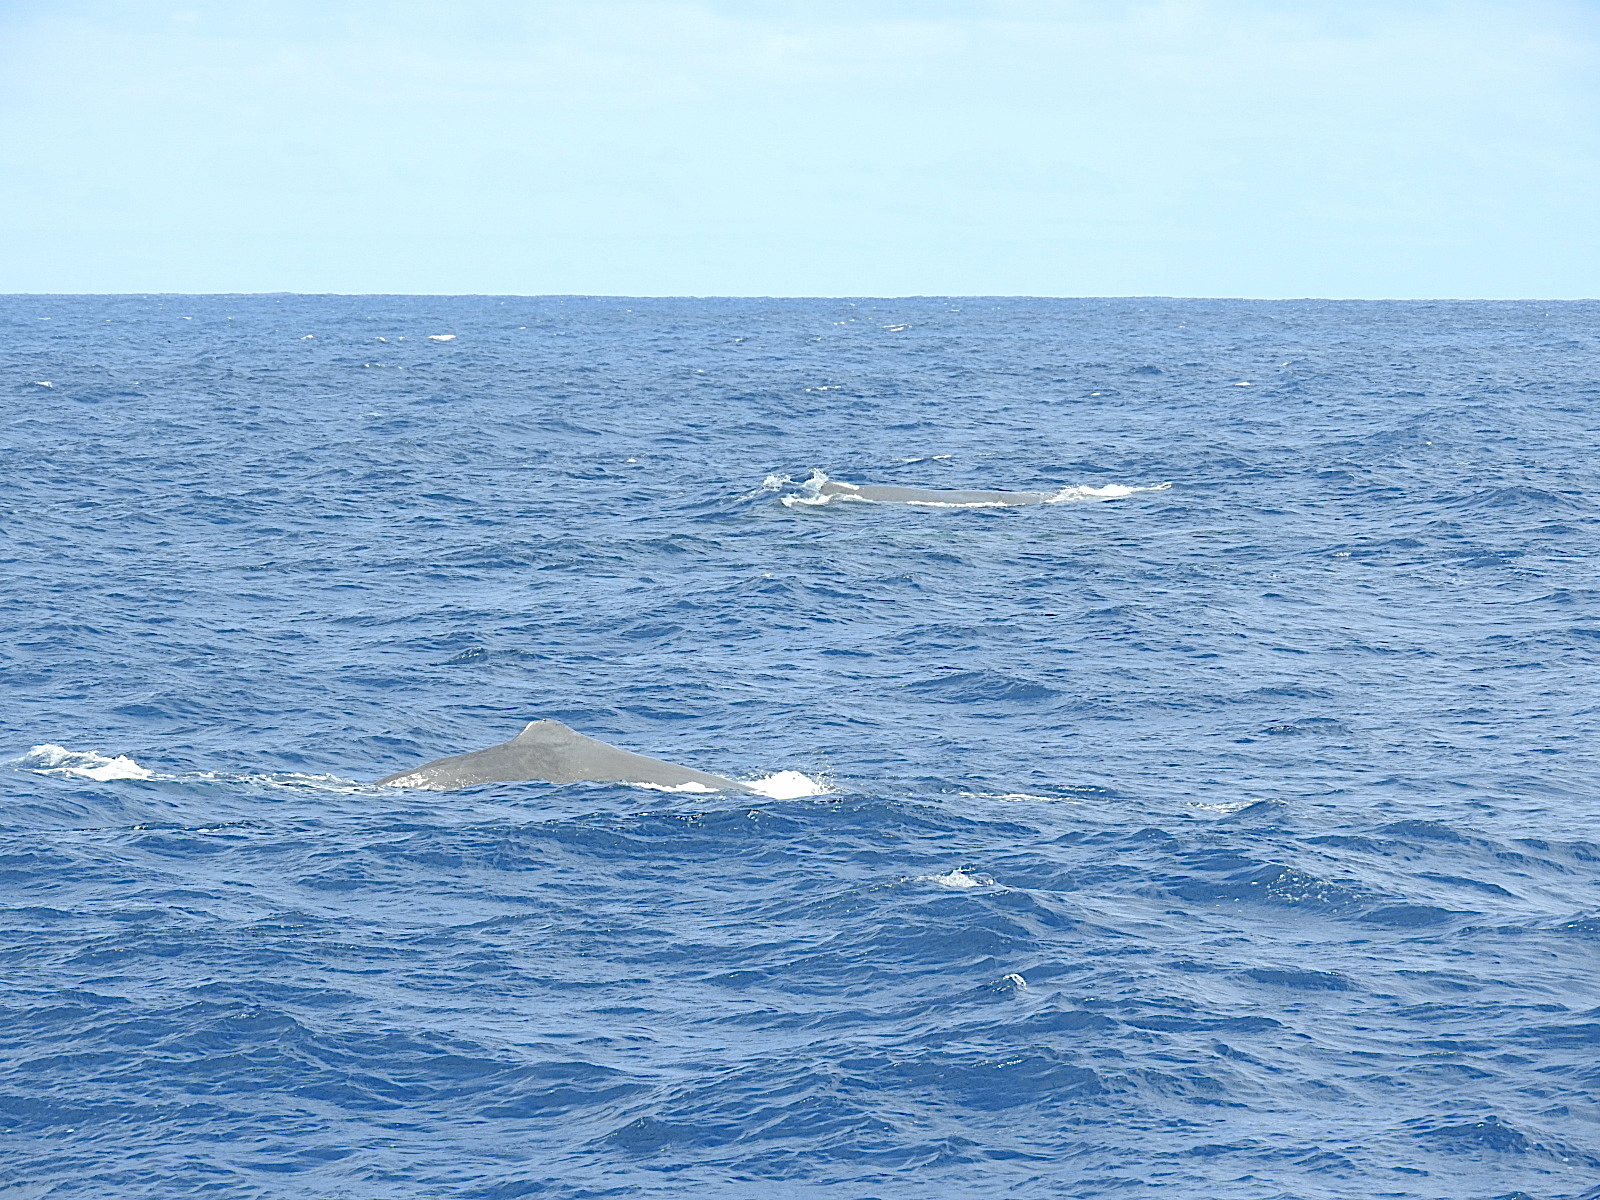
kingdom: Animalia
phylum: Chordata
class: Mammalia
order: Cetacea
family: Physeteridae
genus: Physeter
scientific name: Physeter macrocephalus
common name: Sperm whale
